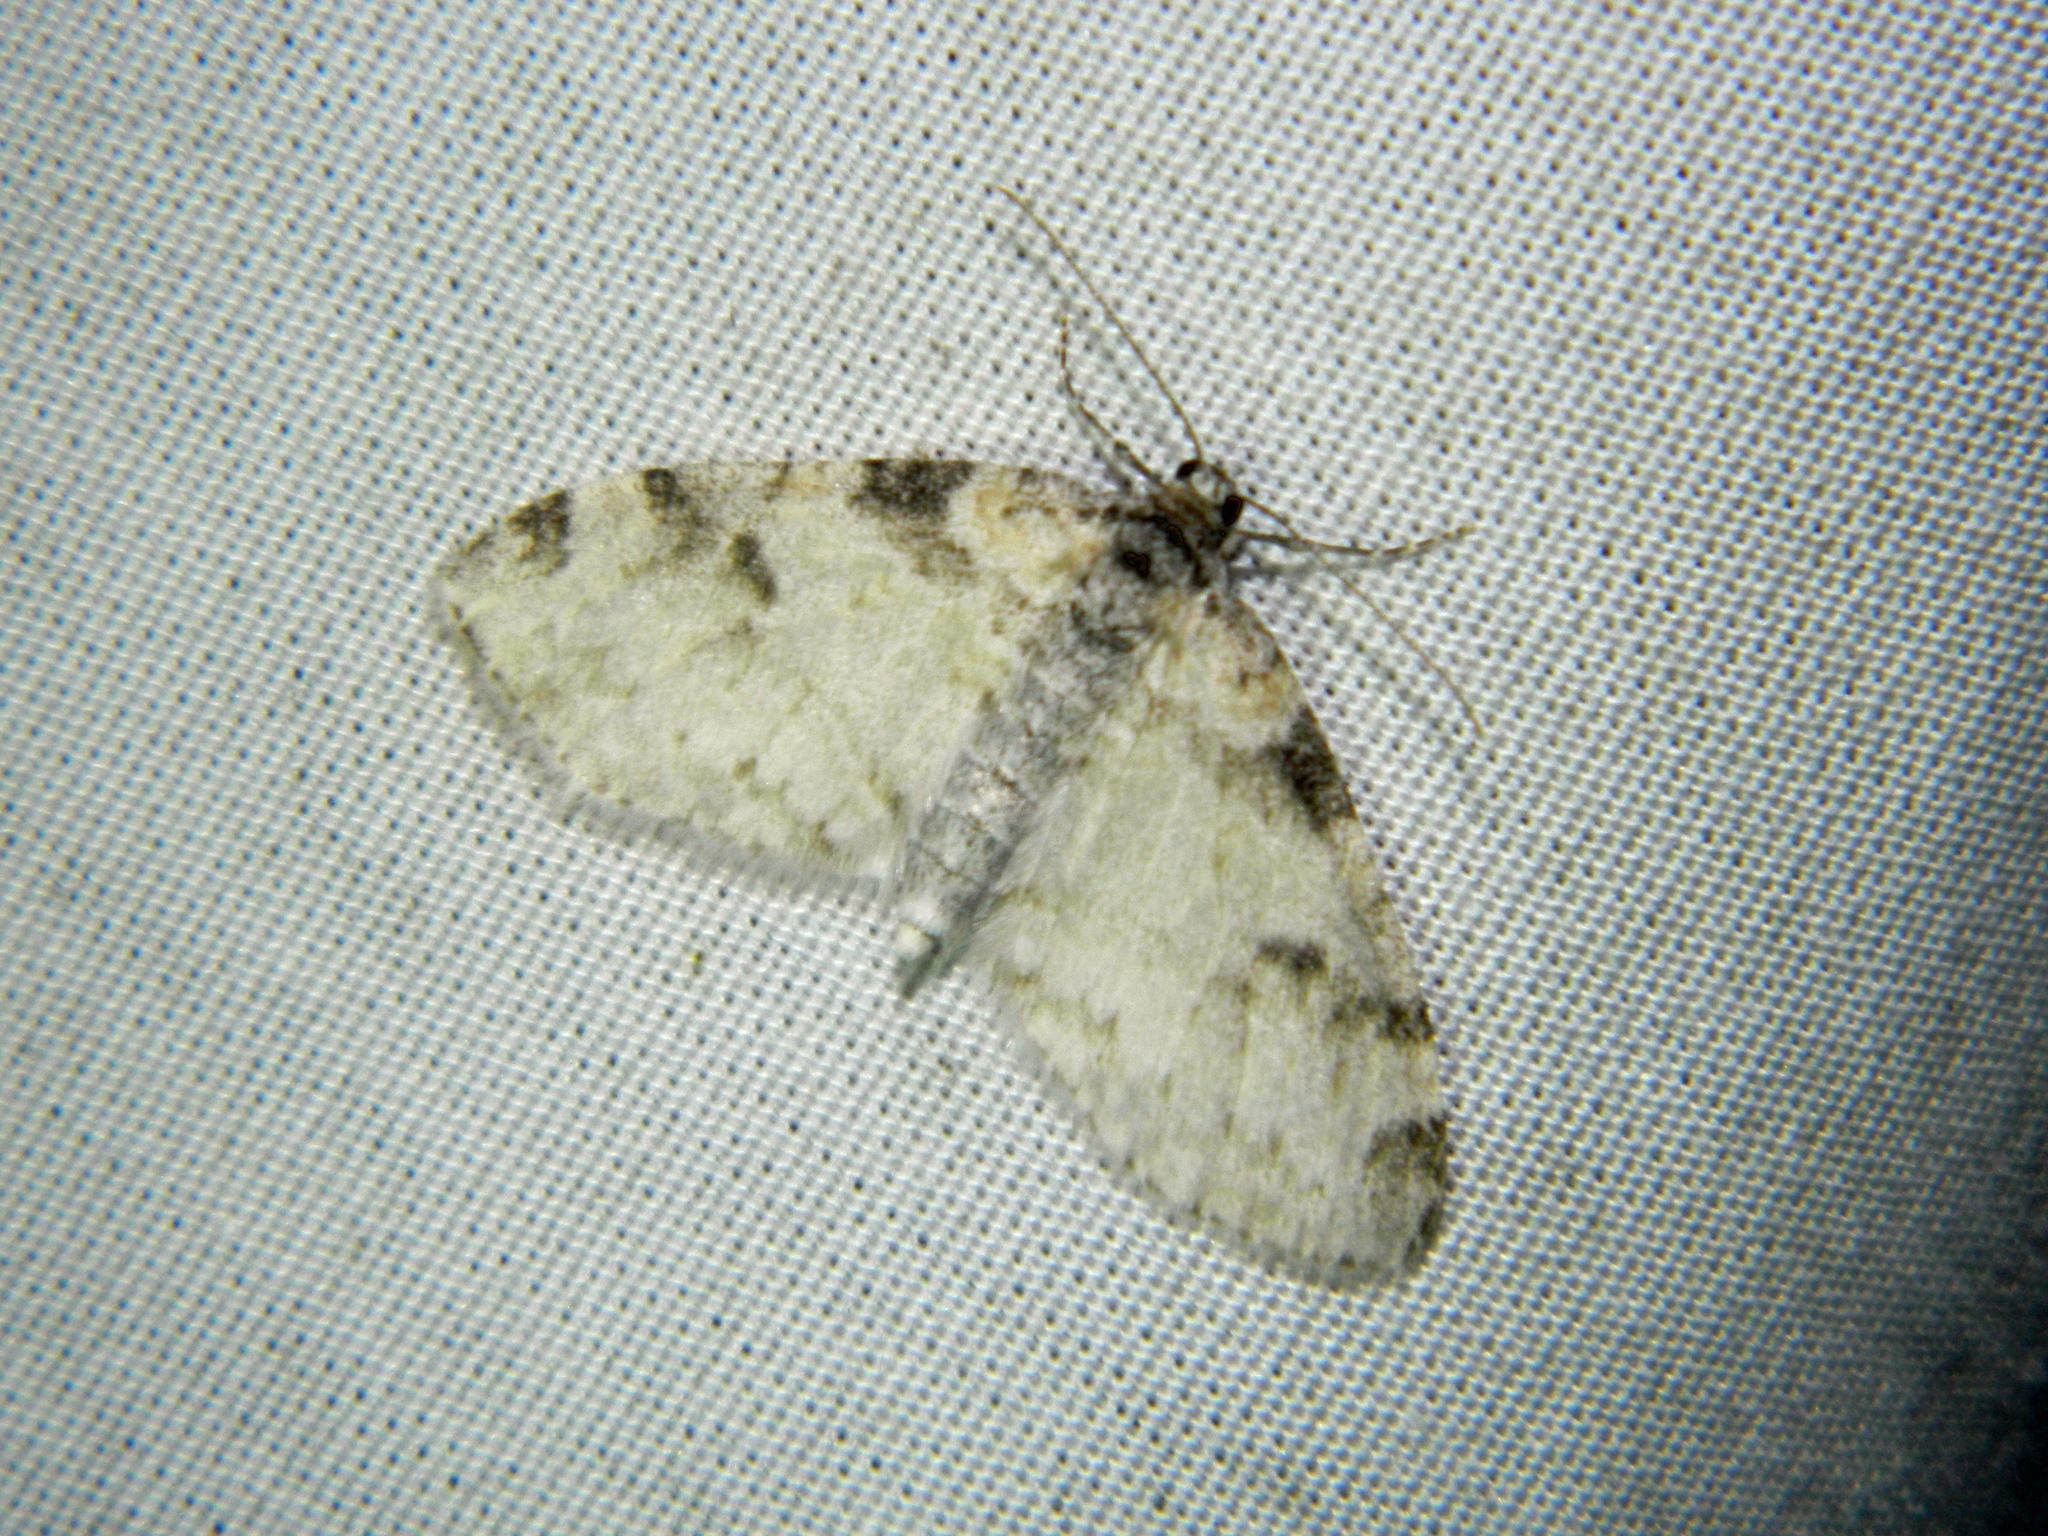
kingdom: Animalia
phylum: Arthropoda
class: Insecta
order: Lepidoptera
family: Geometridae
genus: Lobophora
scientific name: Lobophora nivigerata
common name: Powdered bigwing
